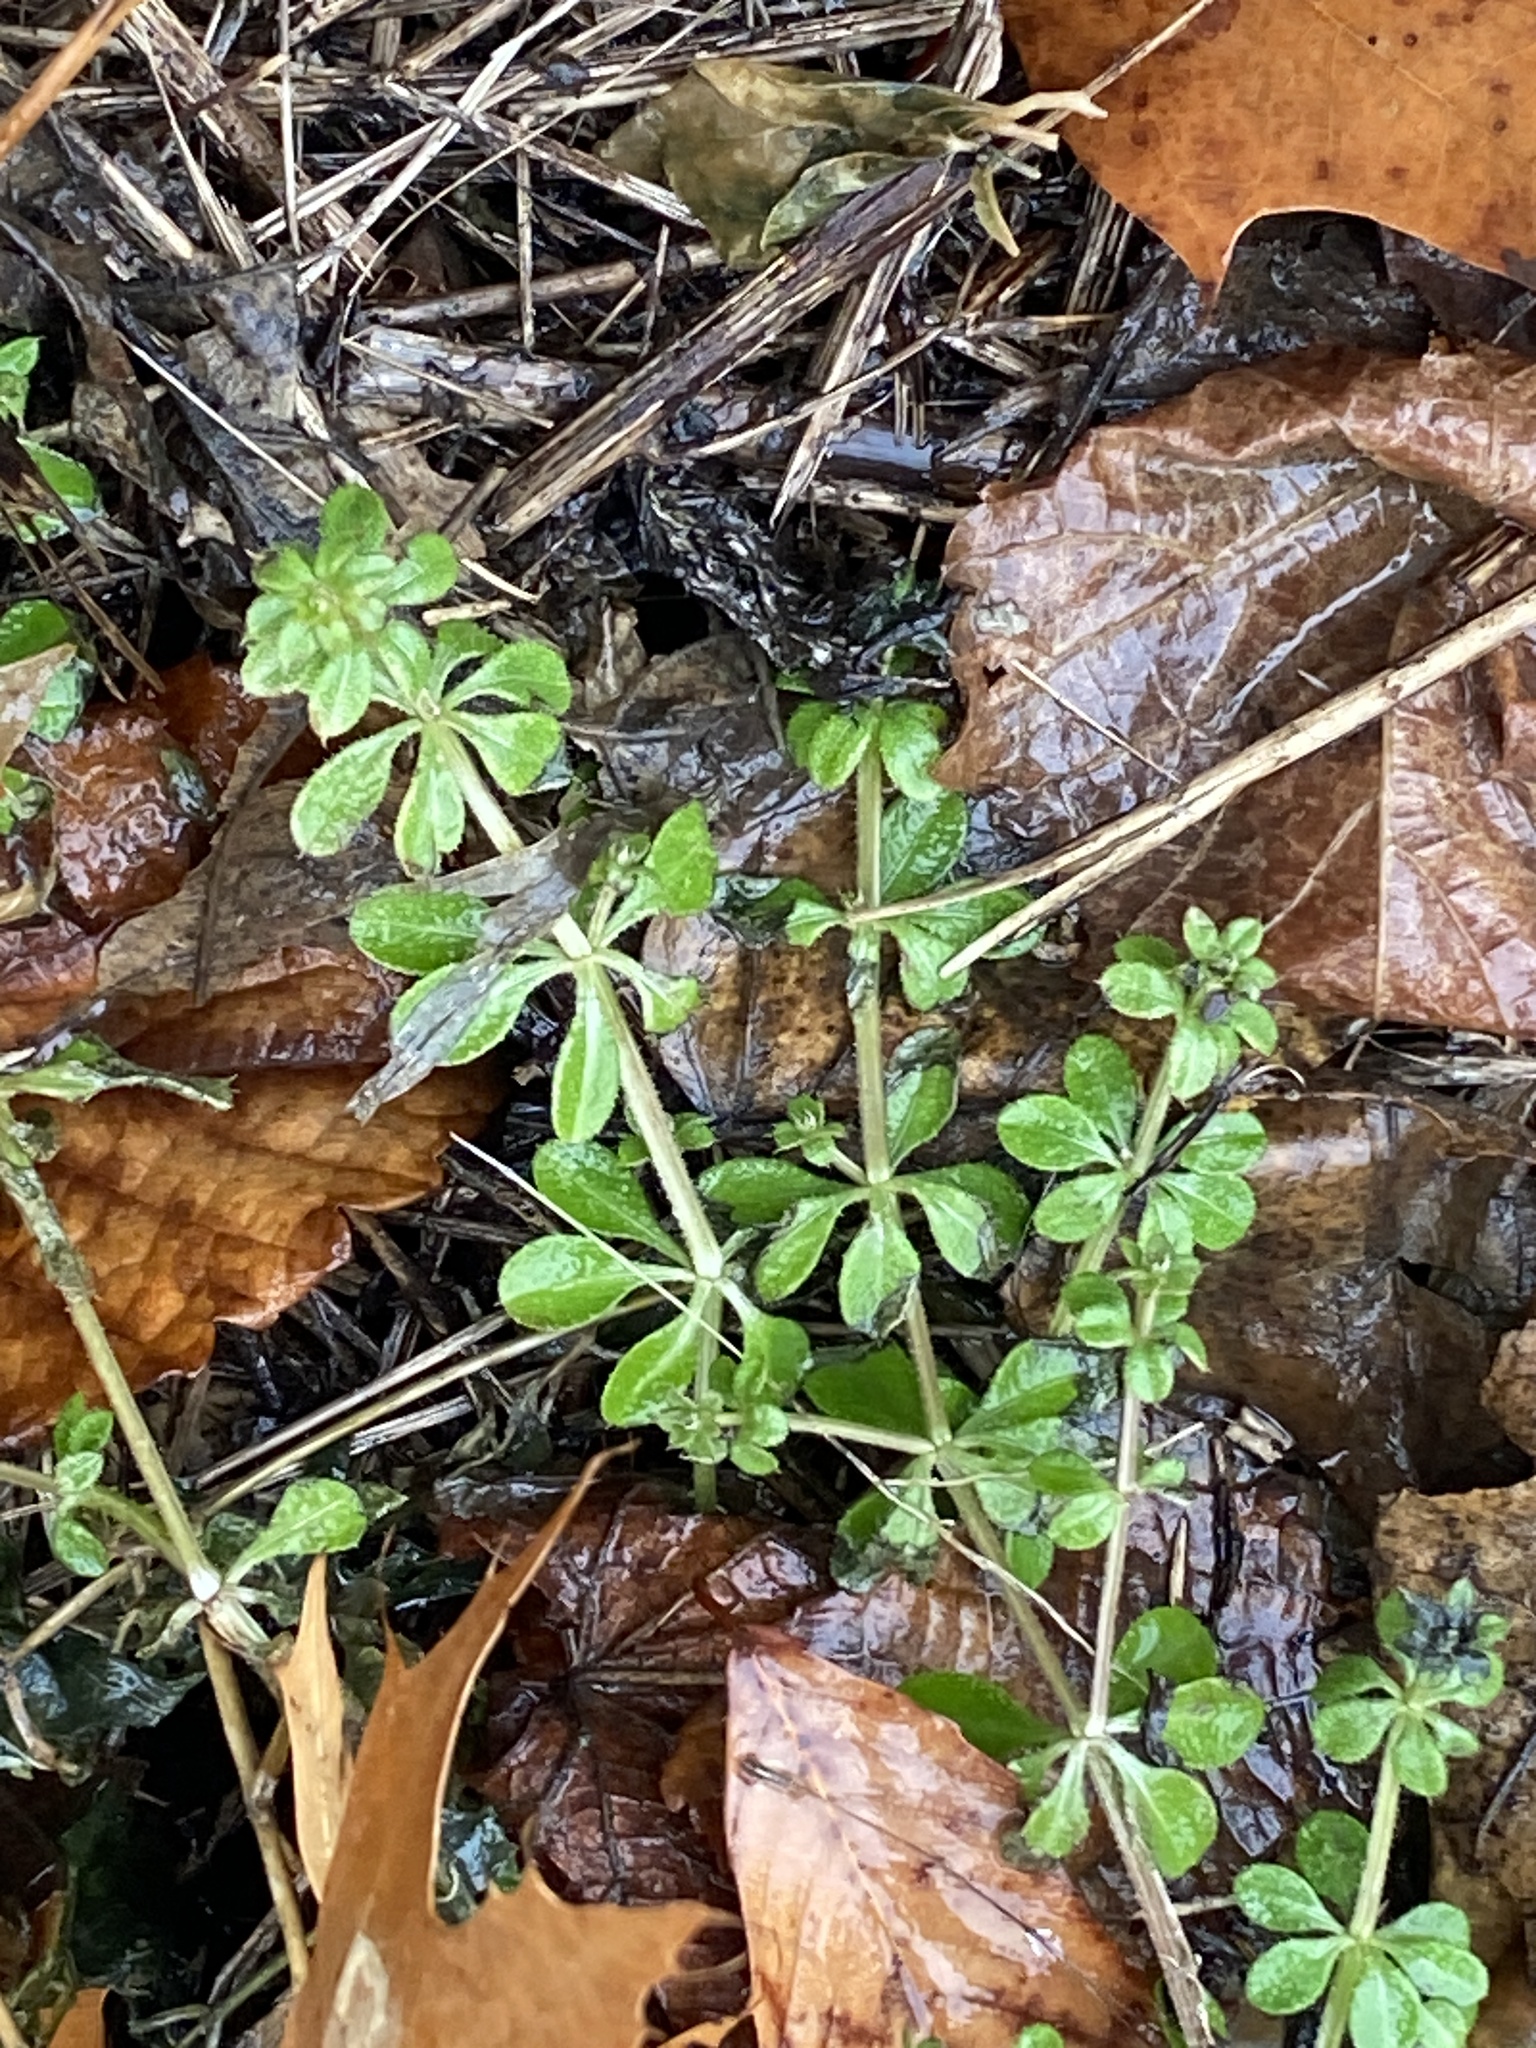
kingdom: Plantae
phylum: Tracheophyta
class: Magnoliopsida
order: Gentianales
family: Rubiaceae
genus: Galium
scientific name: Galium aparine
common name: Cleavers
